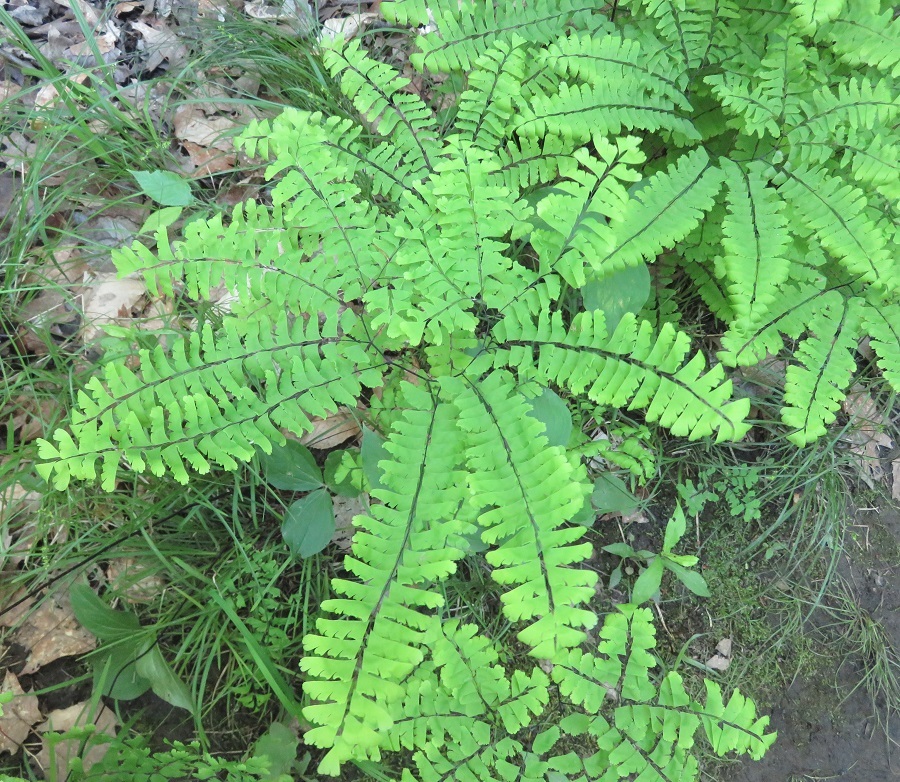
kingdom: Plantae
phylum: Tracheophyta
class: Polypodiopsida
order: Polypodiales
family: Pteridaceae
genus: Adiantum
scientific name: Adiantum pedatum
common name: Five-finger fern
